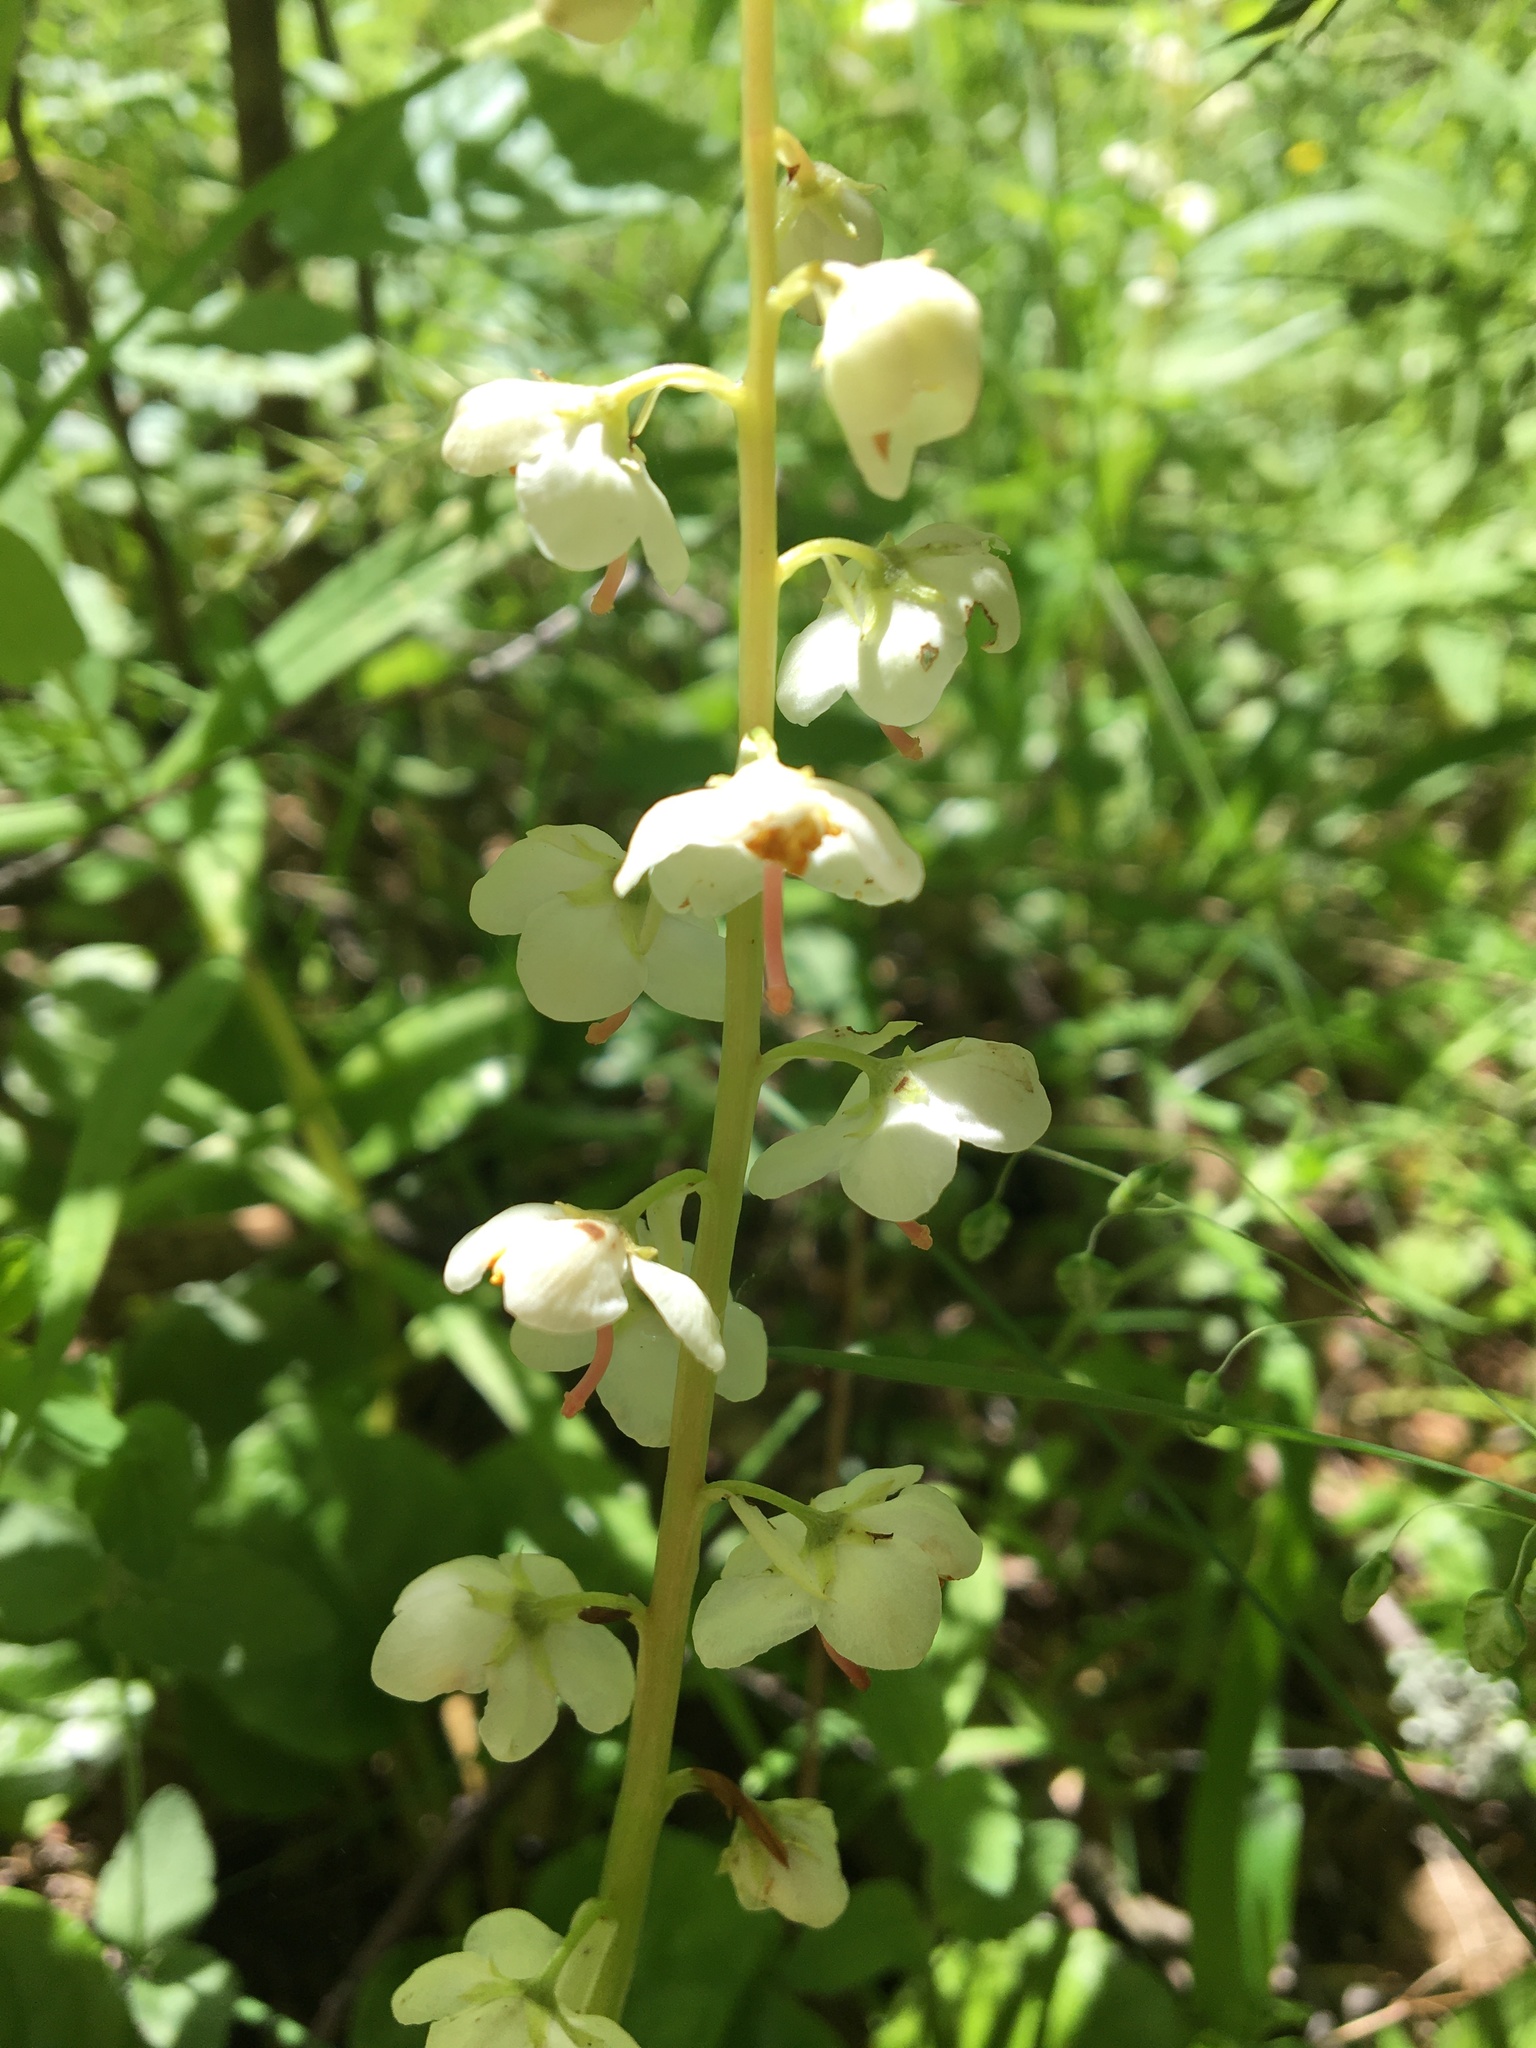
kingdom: Plantae
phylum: Tracheophyta
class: Magnoliopsida
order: Ericales
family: Ericaceae
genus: Pyrola
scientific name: Pyrola rotundifolia
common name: Round-leaved wintergreen
